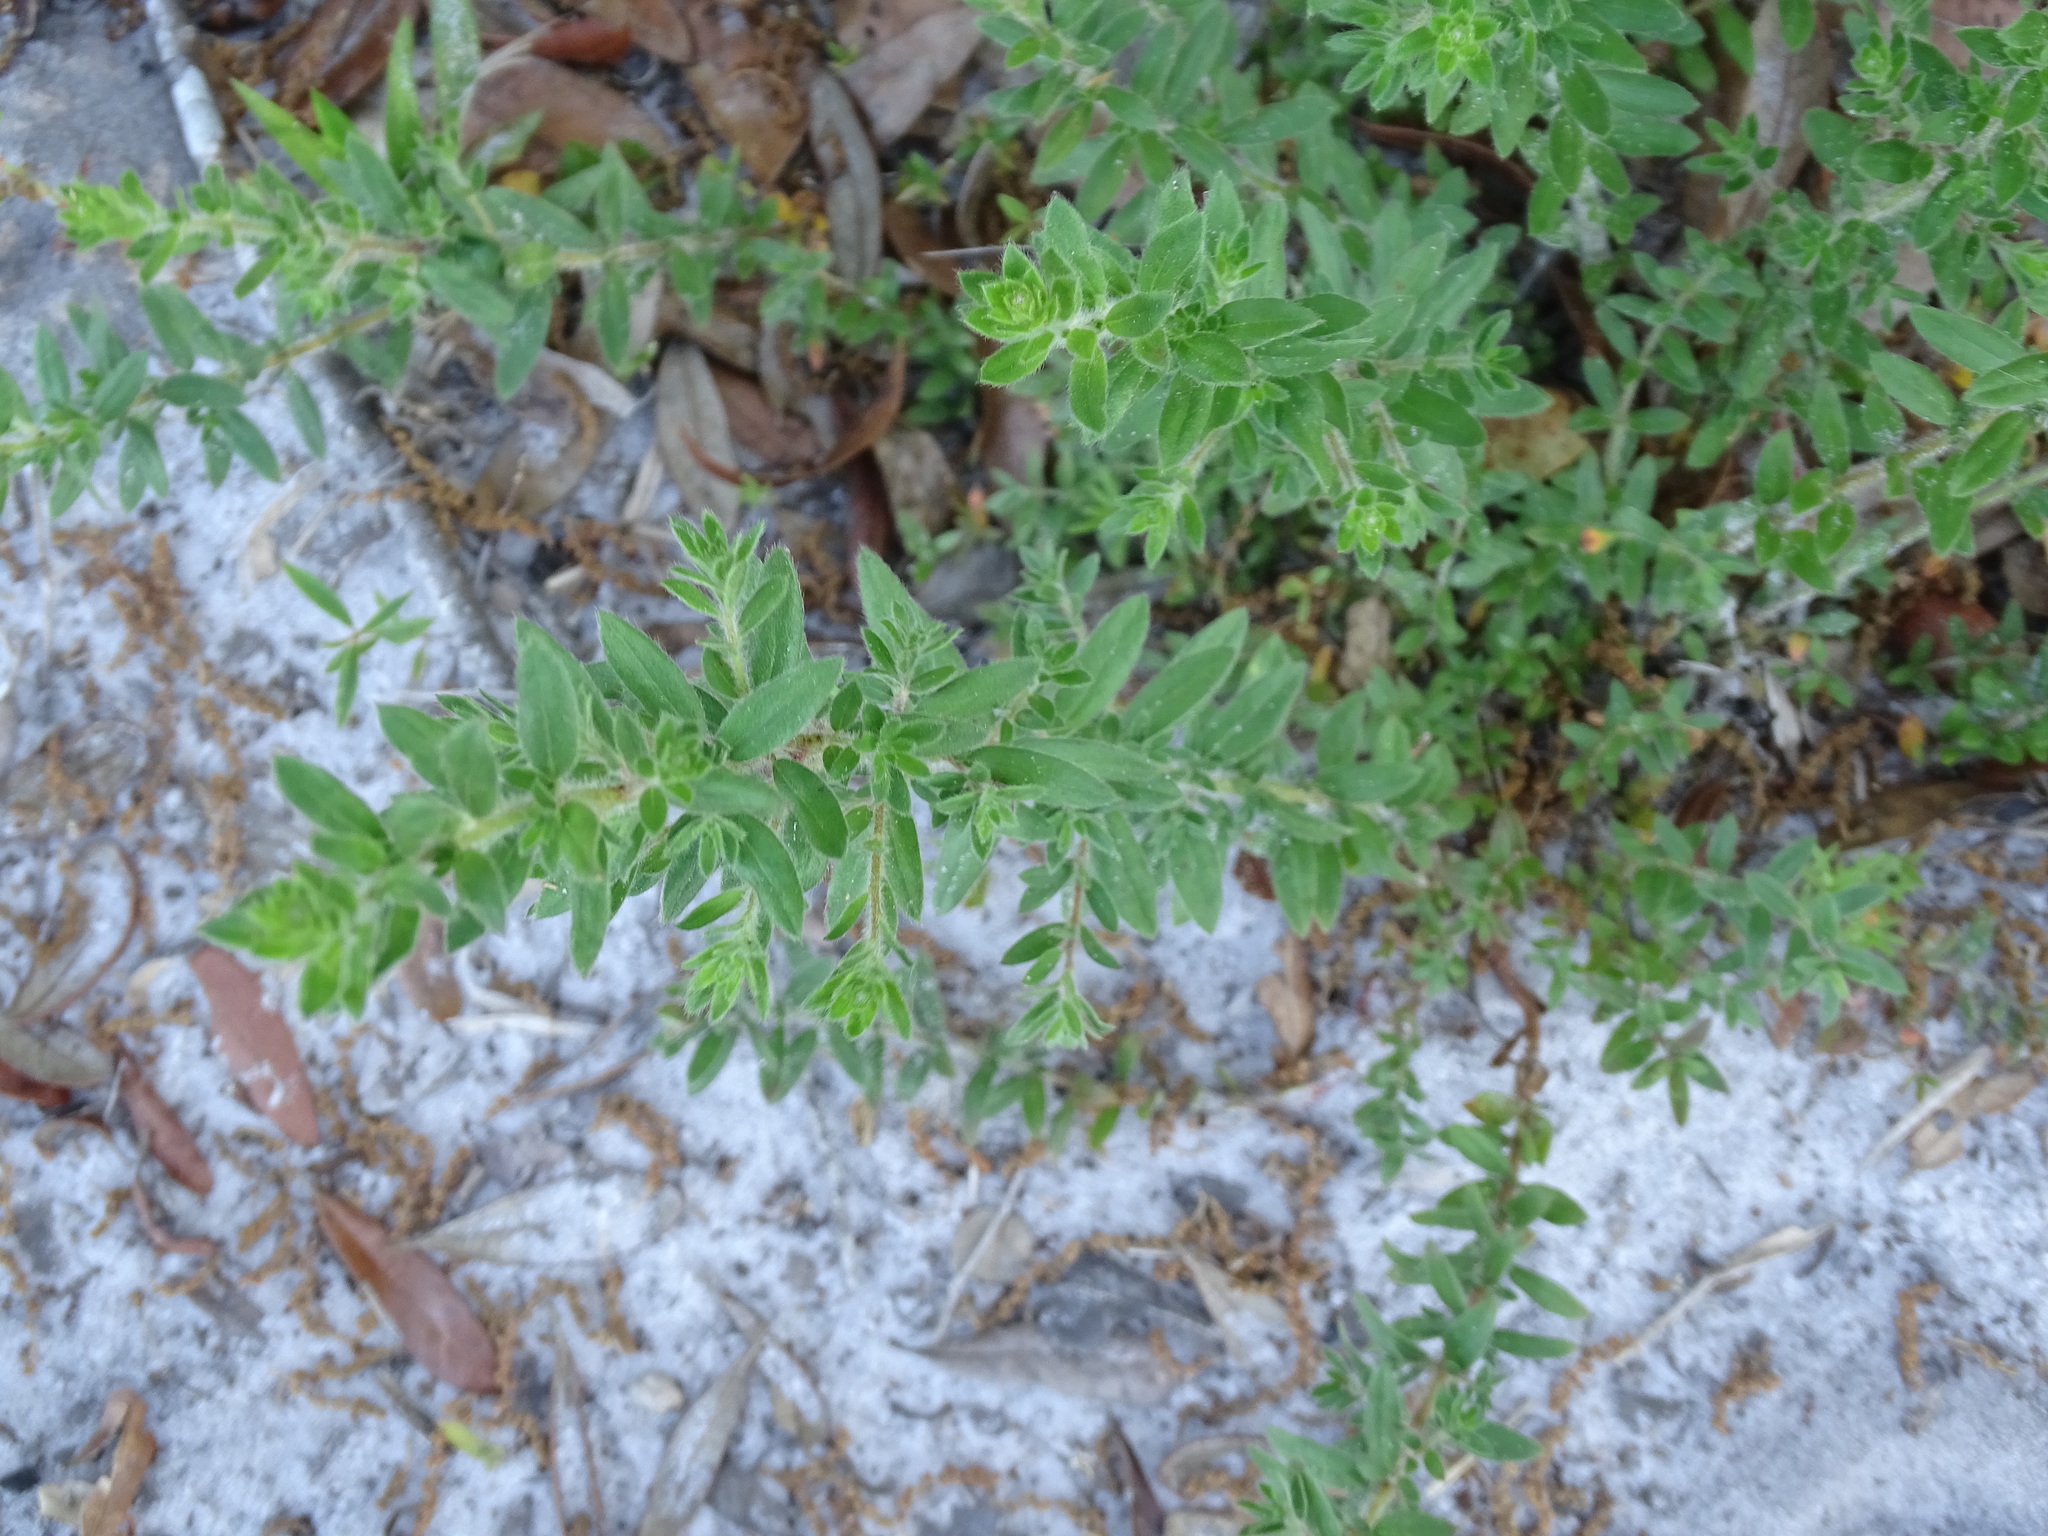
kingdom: Plantae
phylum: Tracheophyta
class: Magnoliopsida
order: Malvales
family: Cistaceae
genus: Lechea
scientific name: Lechea mucronata
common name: Hairy pinweed
